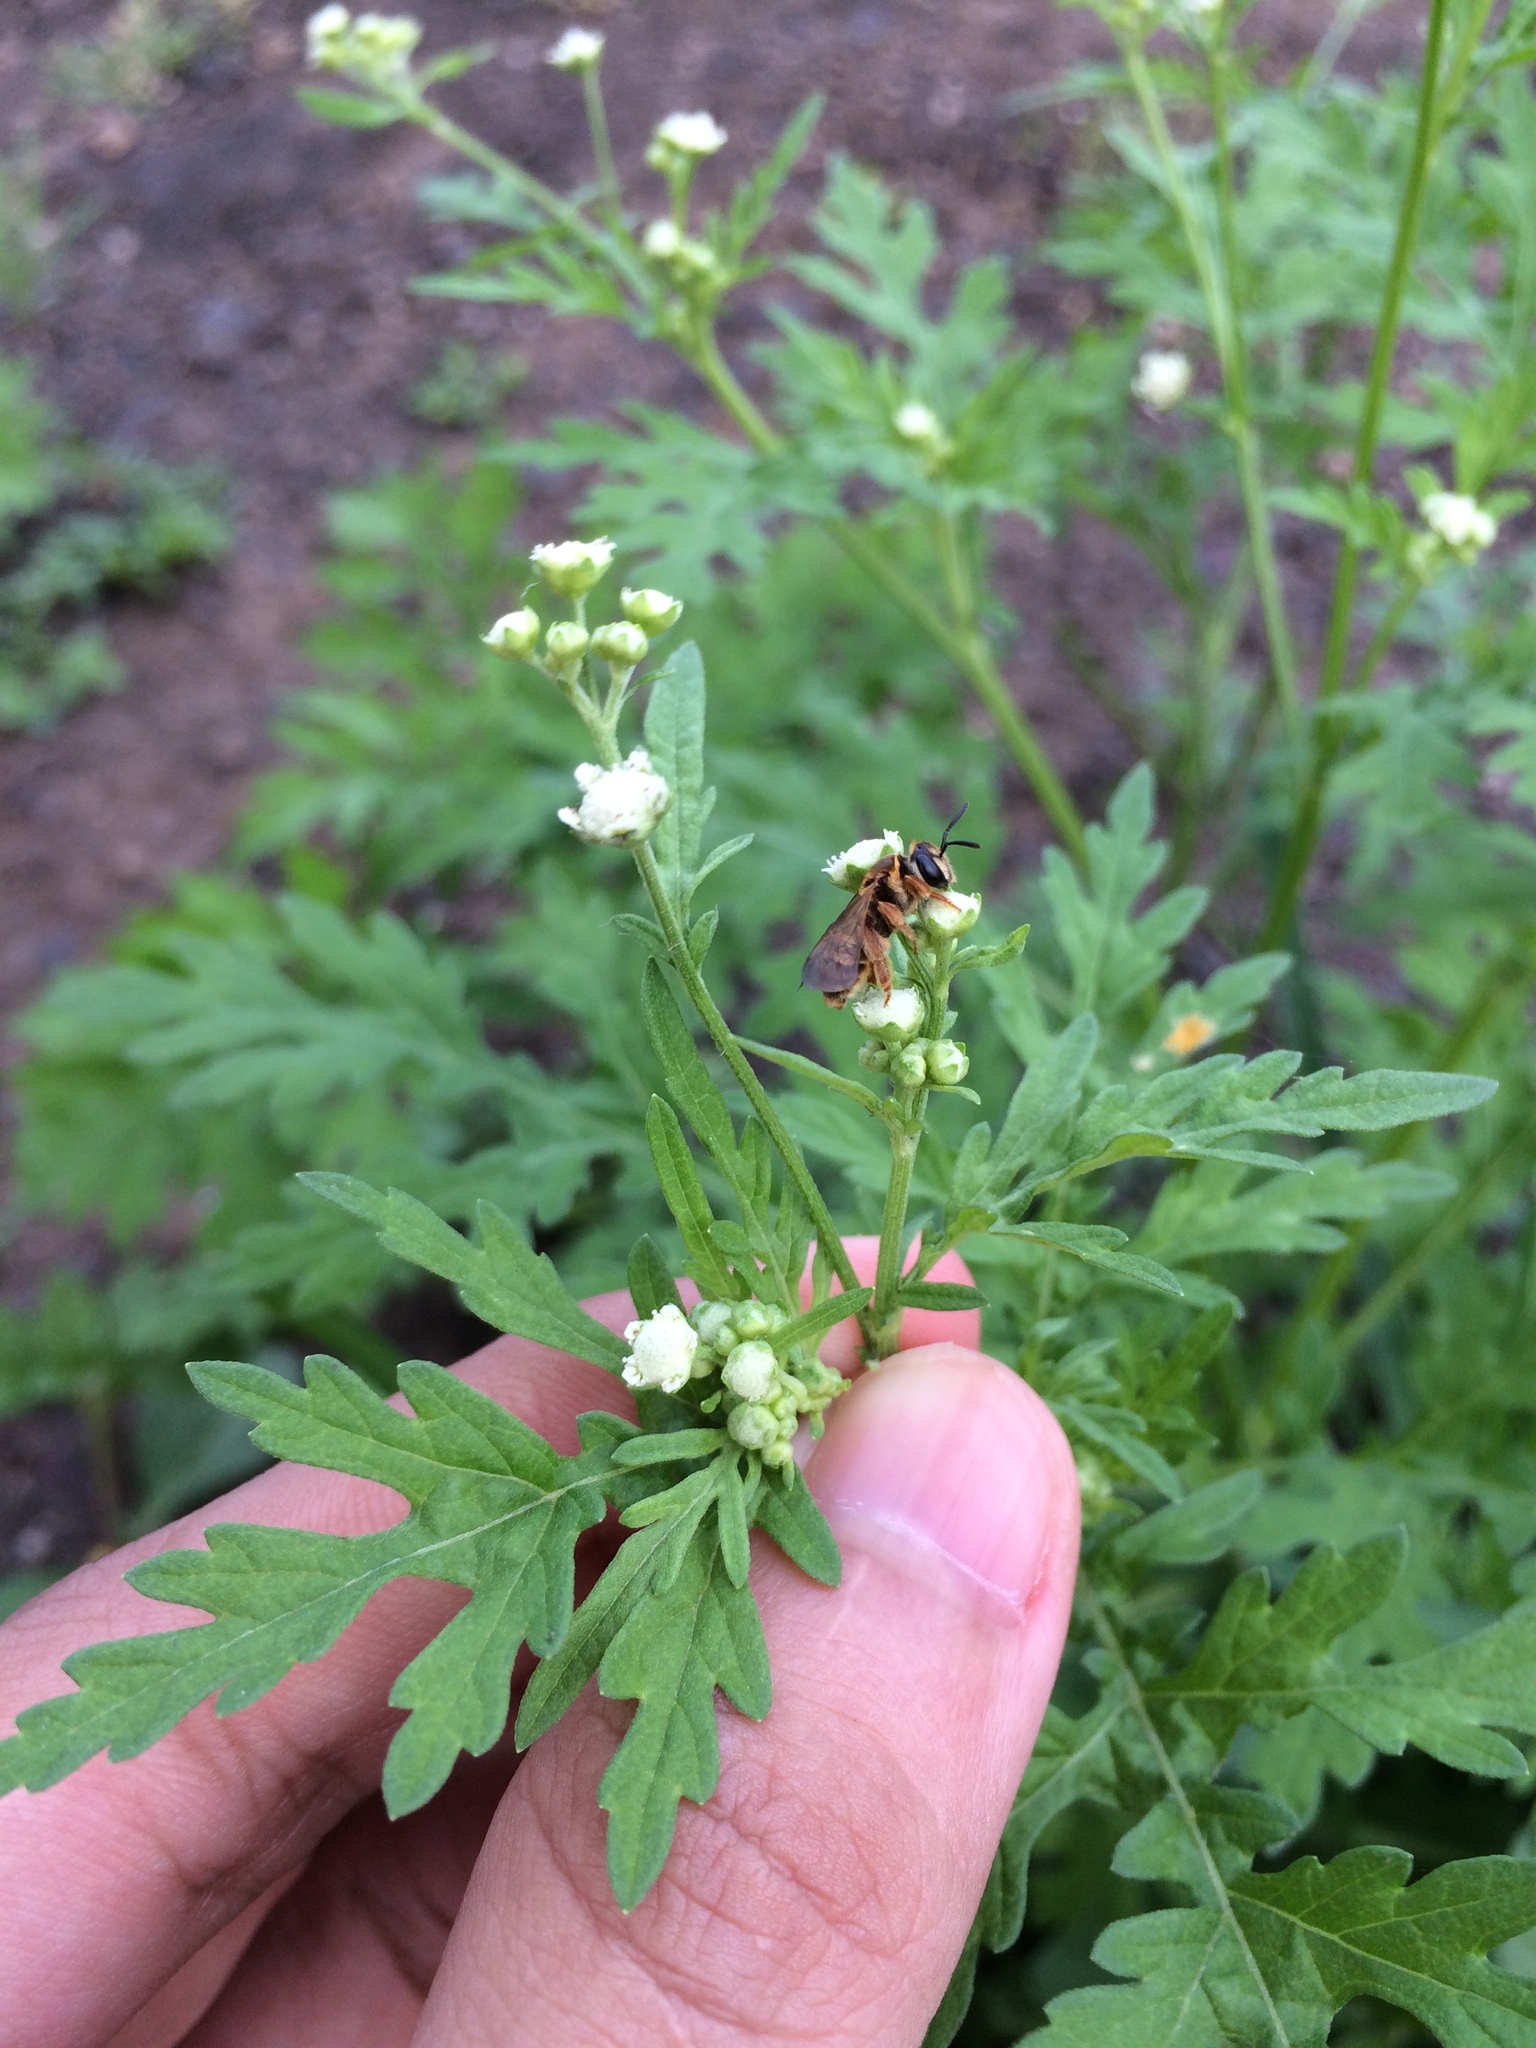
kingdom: Animalia
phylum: Arthropoda
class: Insecta
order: Hymenoptera
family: Halictidae
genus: Lipotriches
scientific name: Lipotriches fervida
